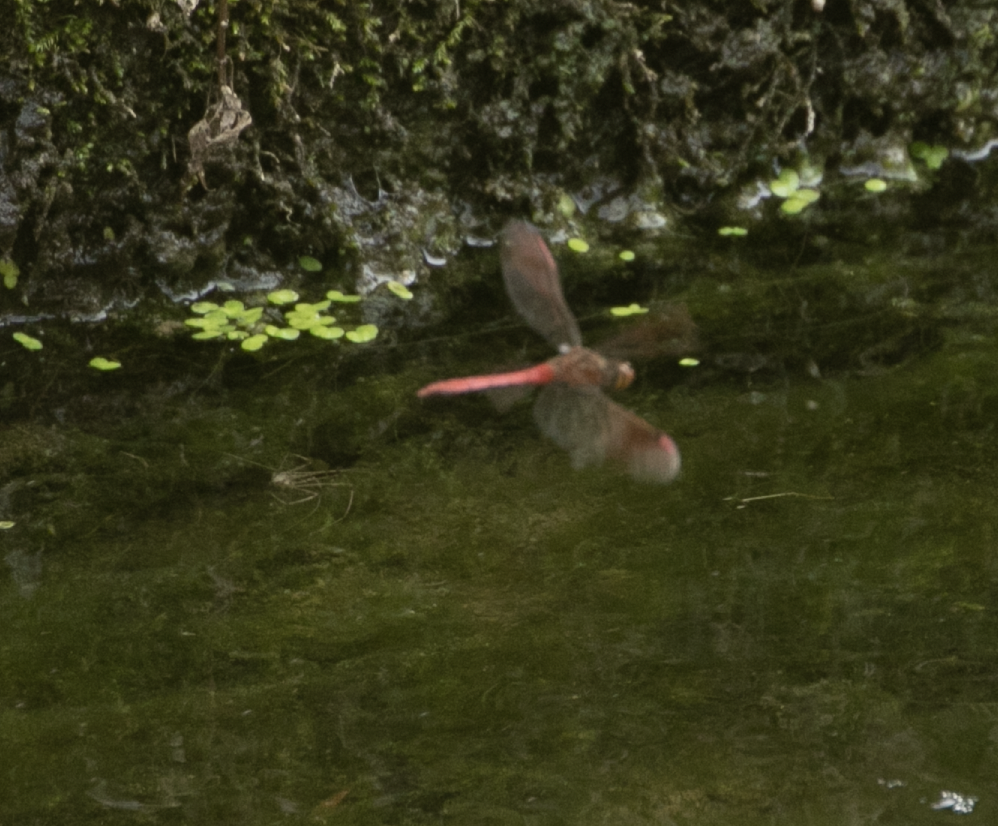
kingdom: Animalia
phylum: Arthropoda
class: Insecta
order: Odonata
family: Libellulidae
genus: Sympetrum
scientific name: Sympetrum pedemontanum
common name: Banded darter
